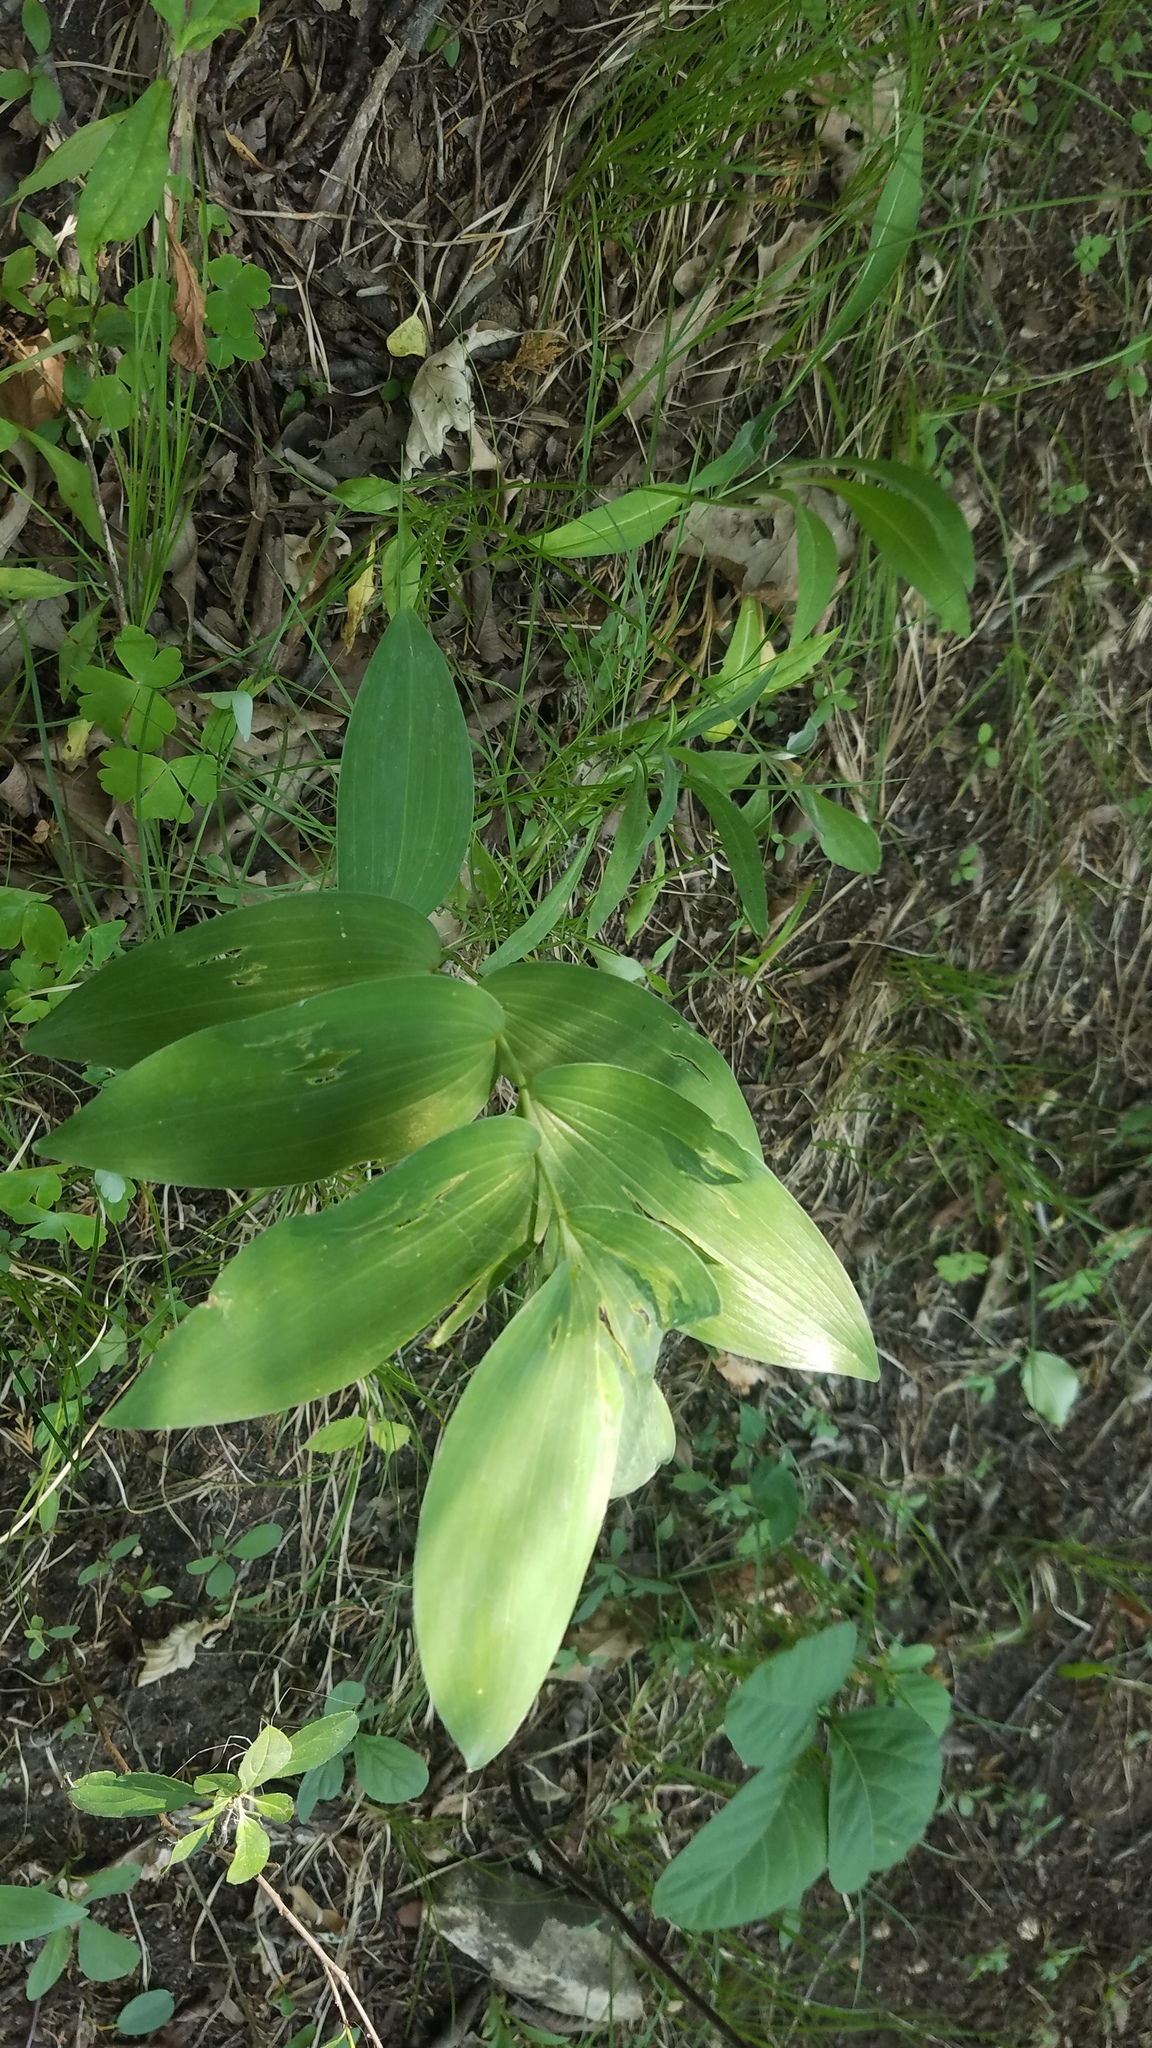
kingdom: Plantae
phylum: Tracheophyta
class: Liliopsida
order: Asparagales
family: Asparagaceae
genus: Polygonatum
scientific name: Polygonatum biflorum
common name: American solomon's-seal
